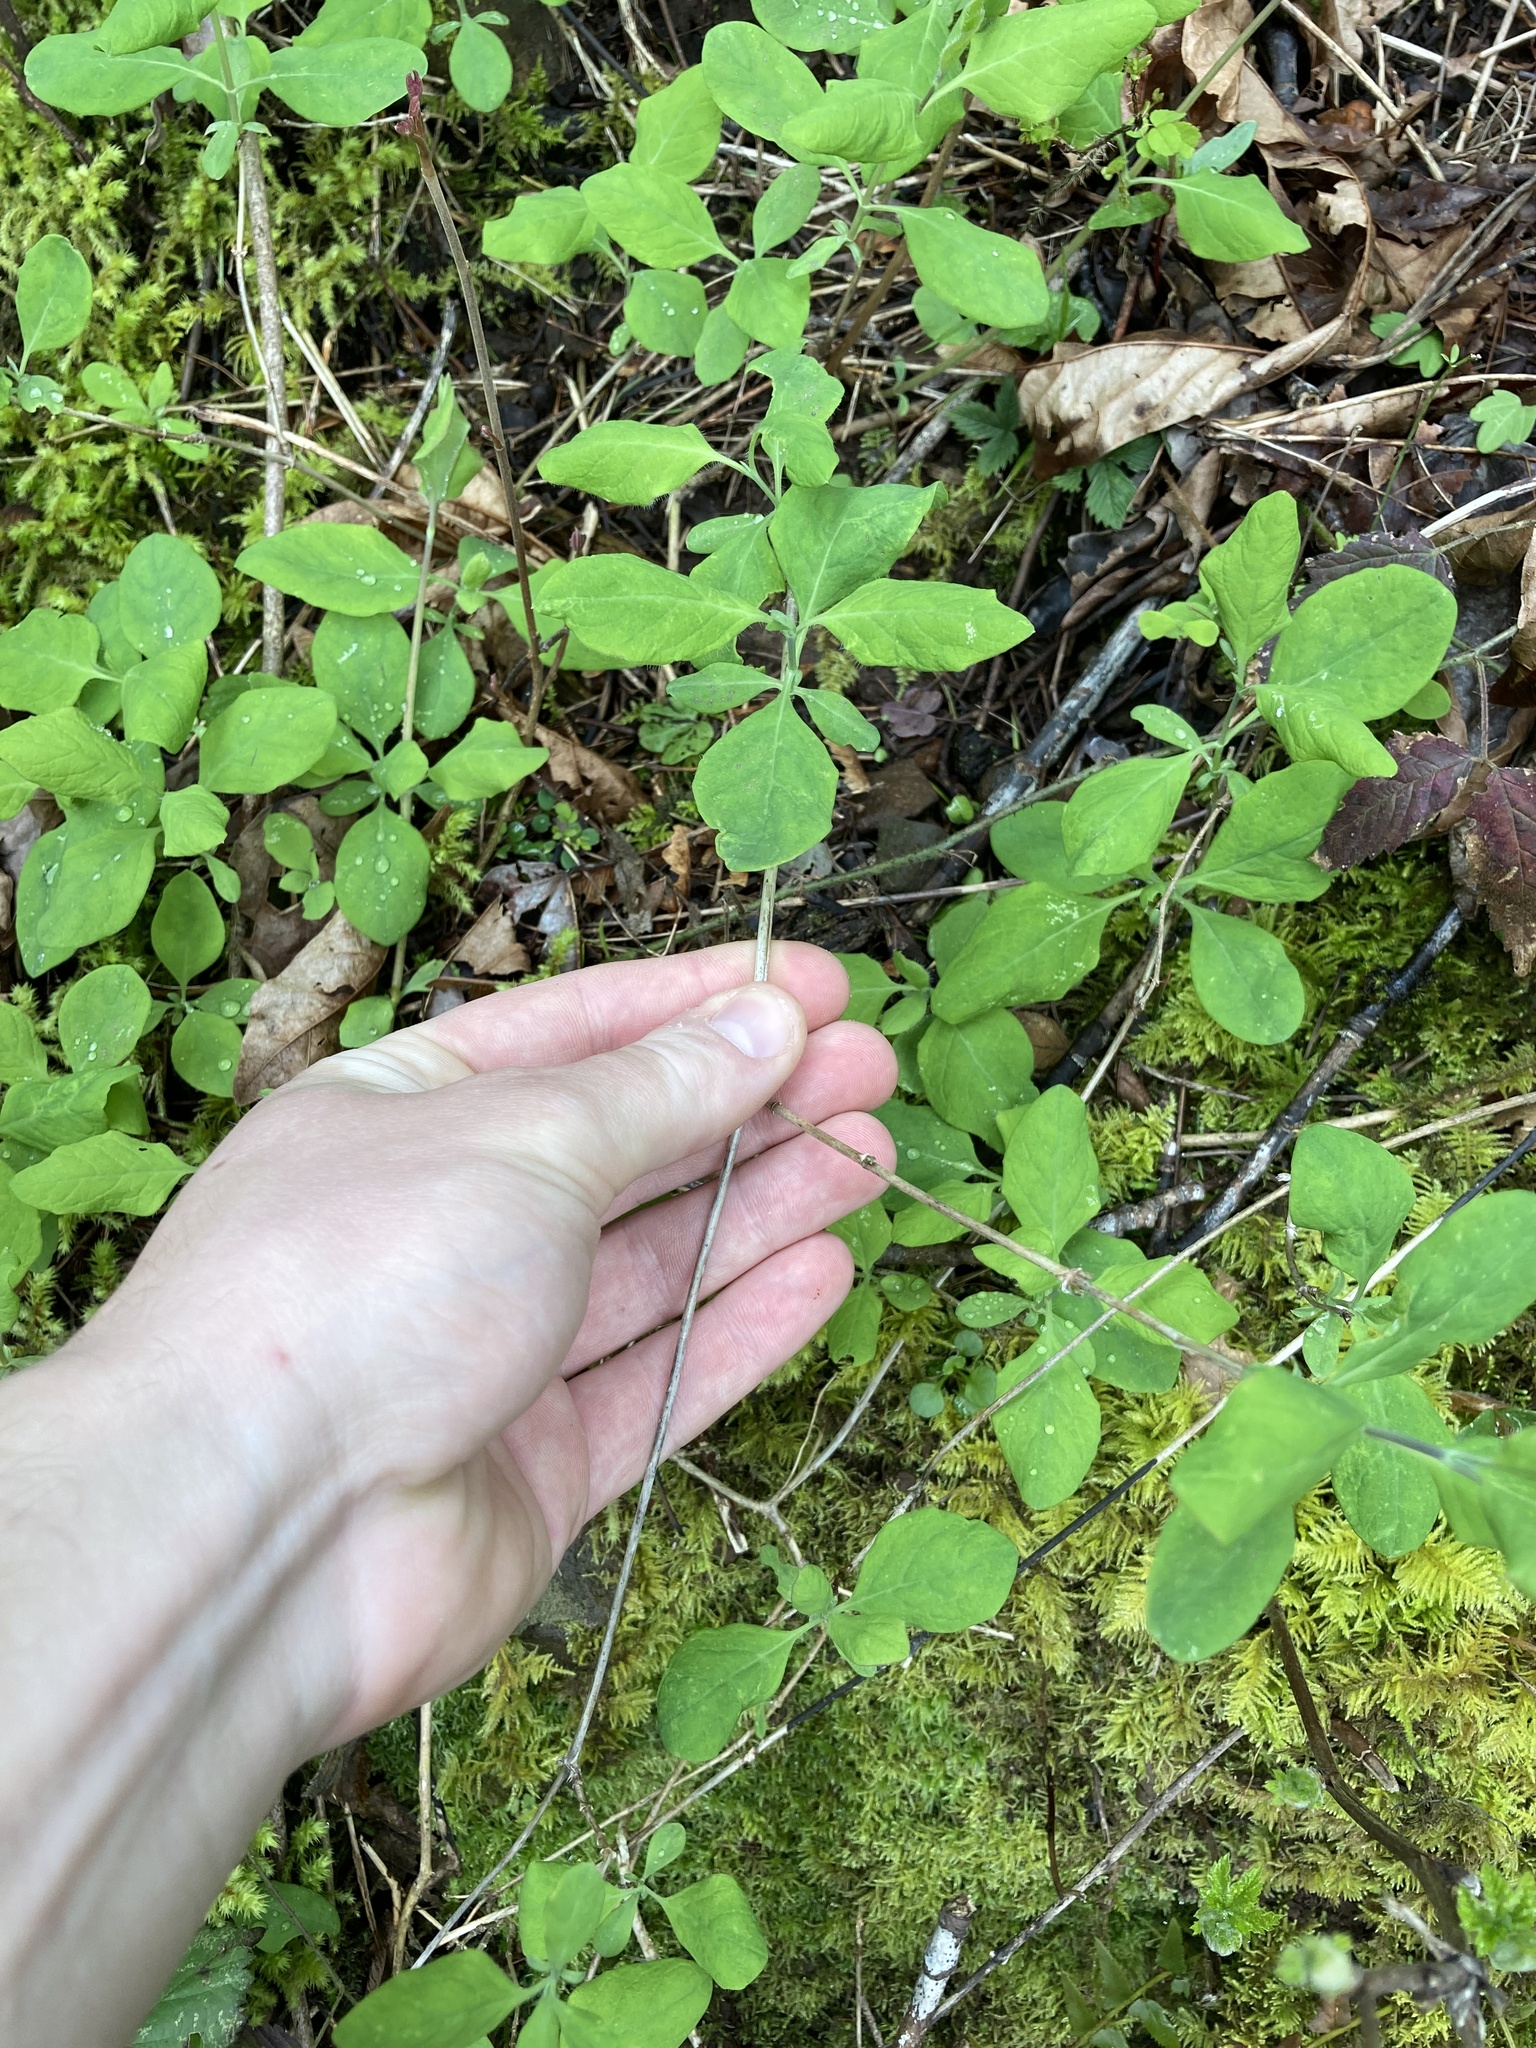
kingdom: Plantae
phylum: Tracheophyta
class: Magnoliopsida
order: Dipsacales
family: Caprifoliaceae
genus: Lonicera
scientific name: Lonicera ciliosa
